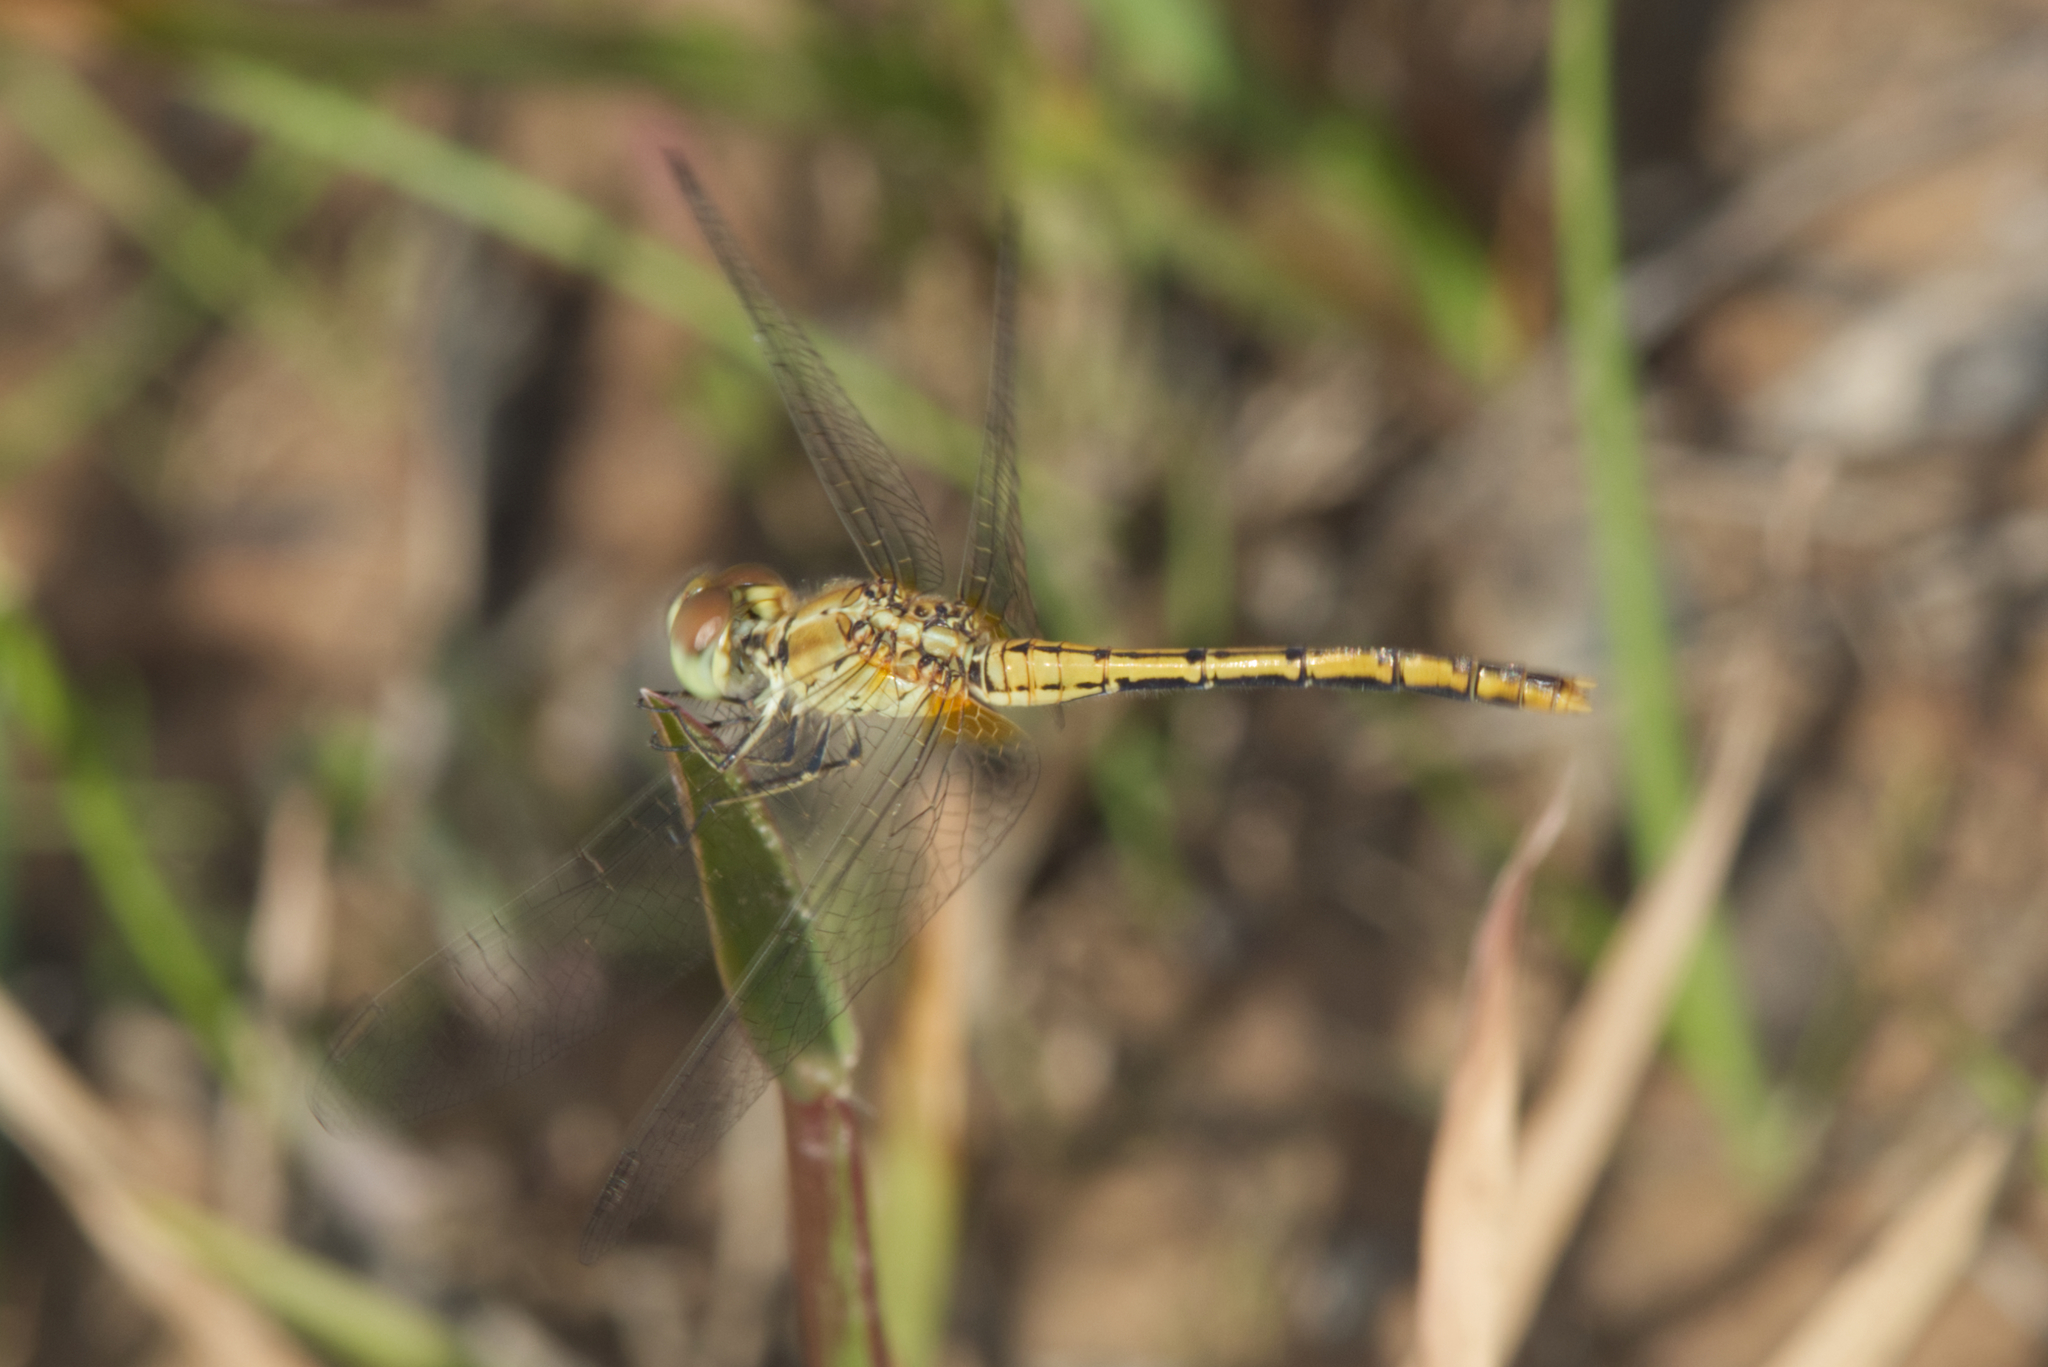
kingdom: Animalia
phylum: Arthropoda
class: Insecta
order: Odonata
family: Libellulidae
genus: Diplacodes
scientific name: Diplacodes bipunctata
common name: Red percher dragonfly
